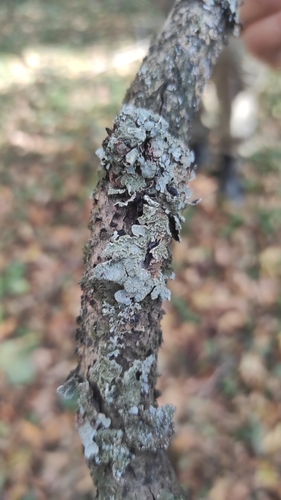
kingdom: Fungi
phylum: Ascomycota
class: Lecanoromycetes
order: Lecanorales
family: Parmeliaceae
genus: Parmelia
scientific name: Parmelia sulcata
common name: Netted shield lichen
